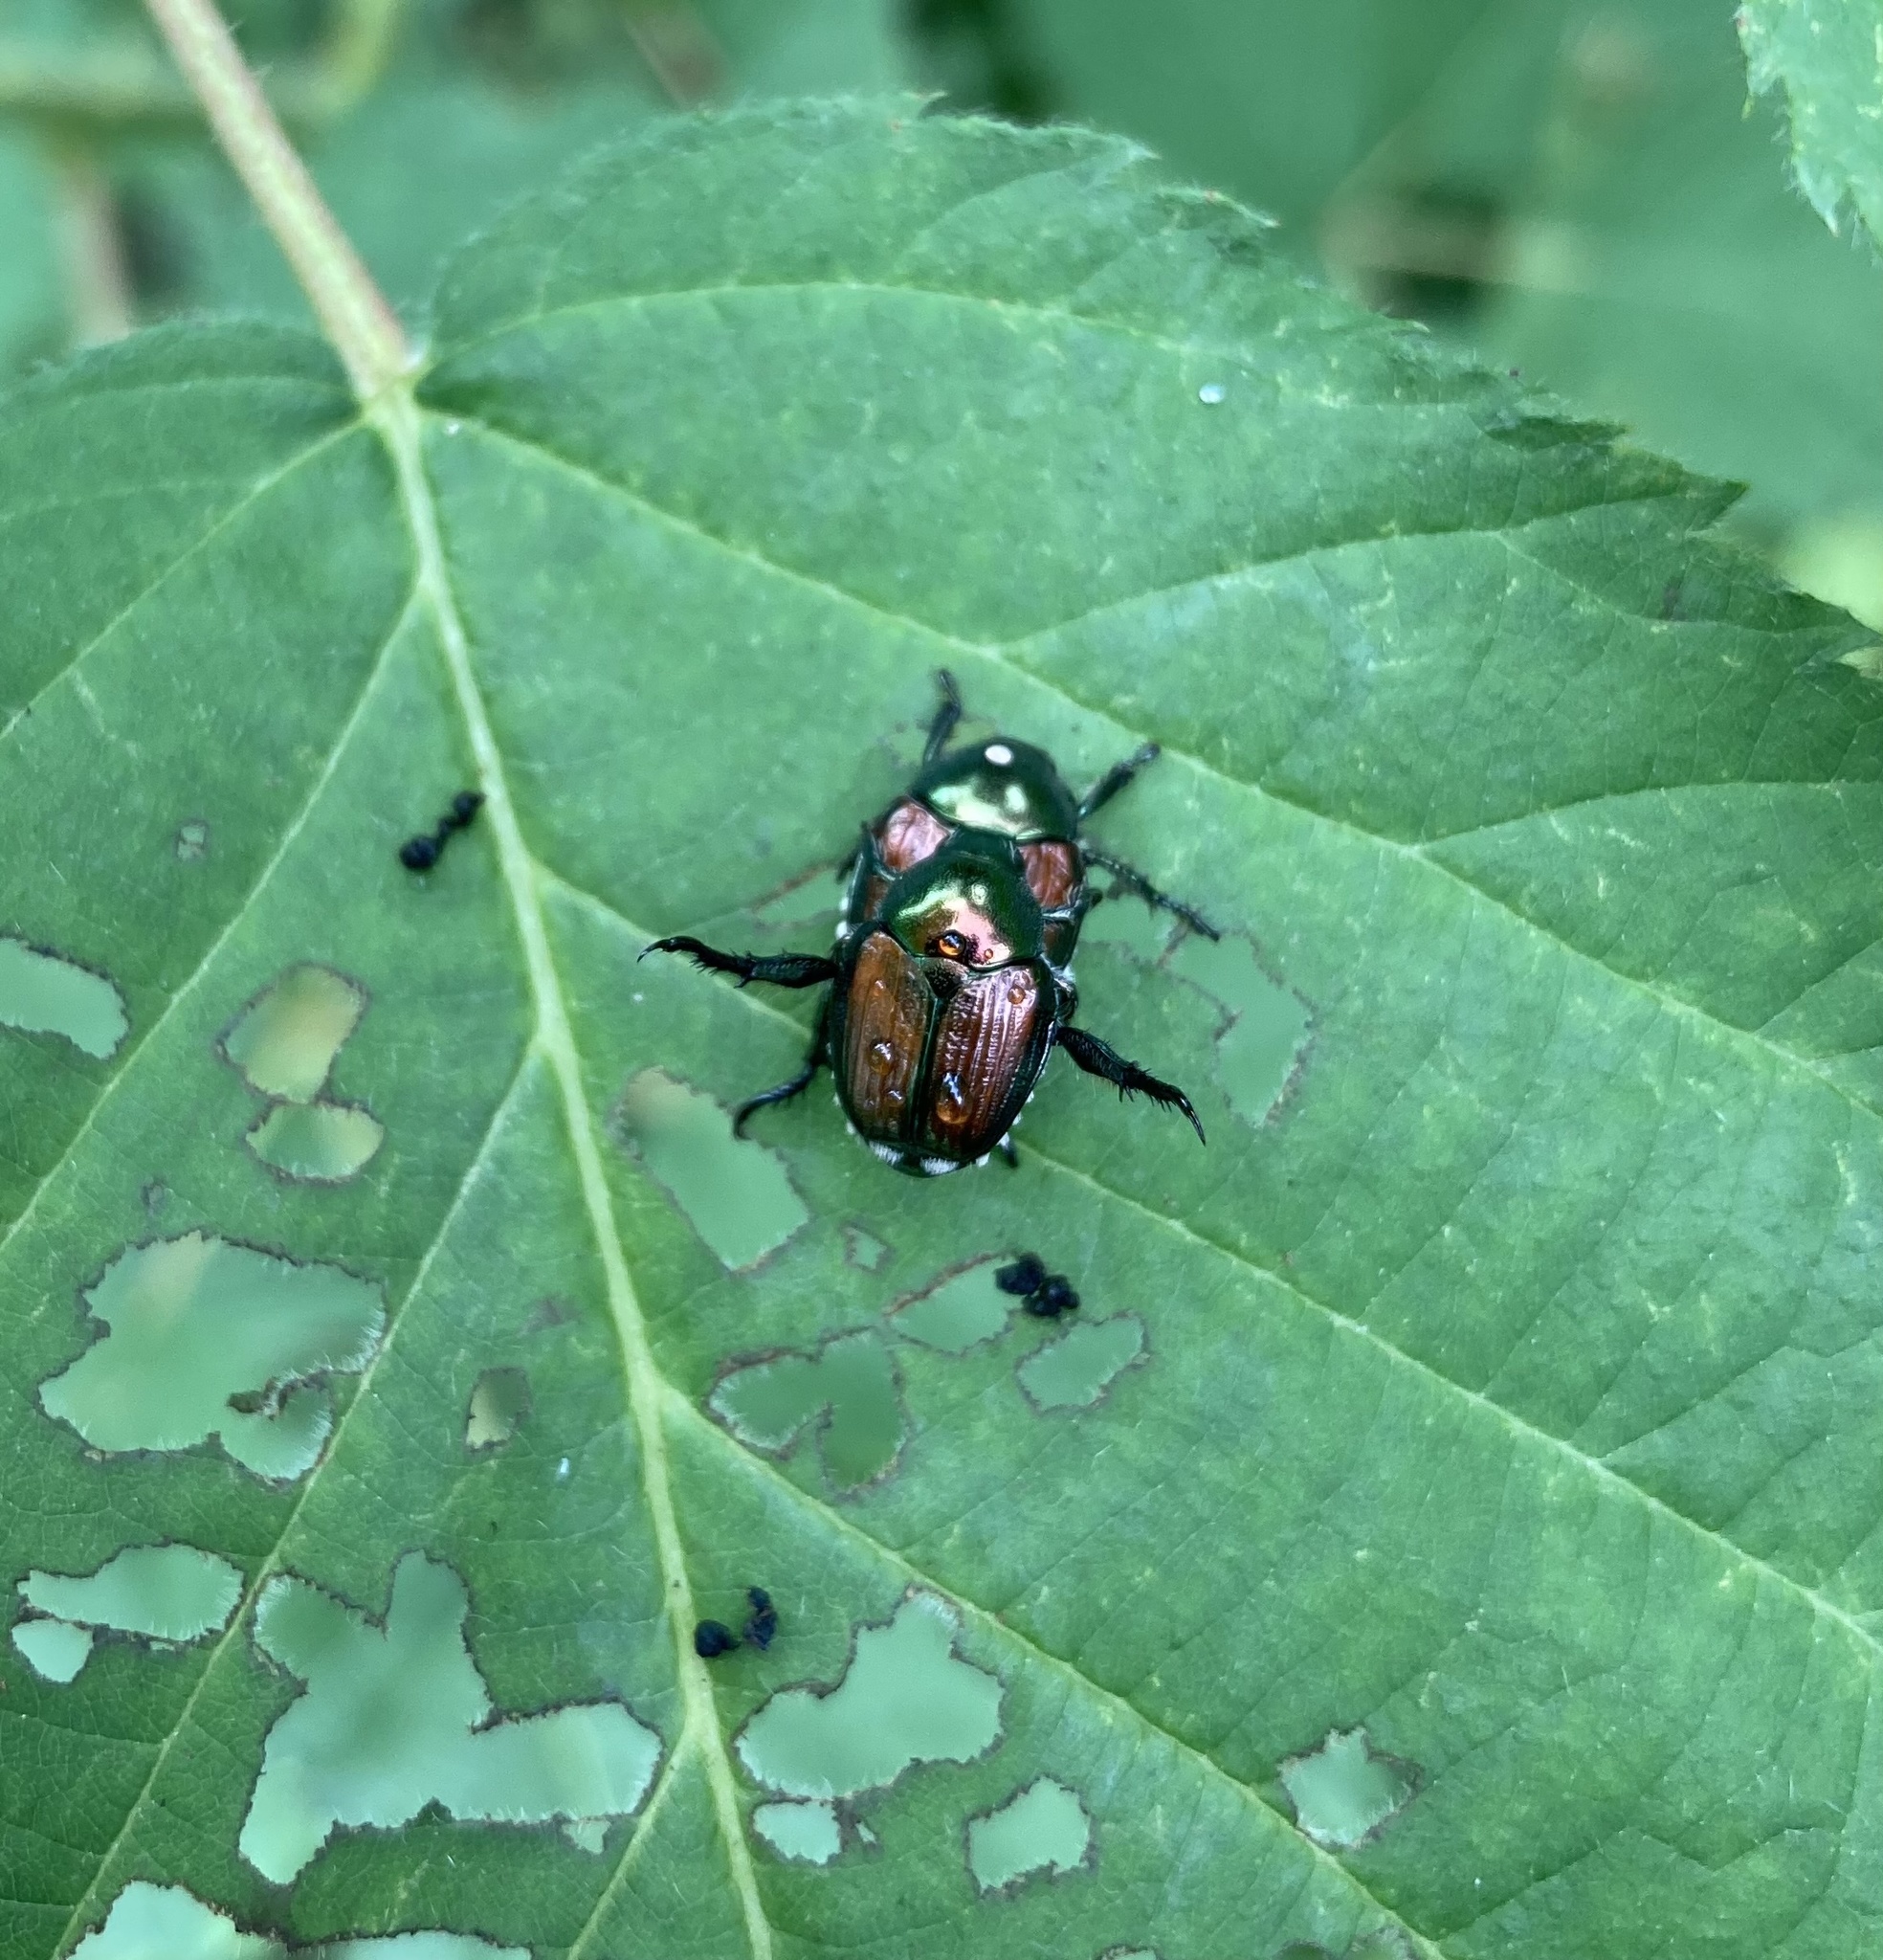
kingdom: Animalia
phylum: Arthropoda
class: Insecta
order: Coleoptera
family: Scarabaeidae
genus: Popillia
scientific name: Popillia japonica
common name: Japanese beetle
